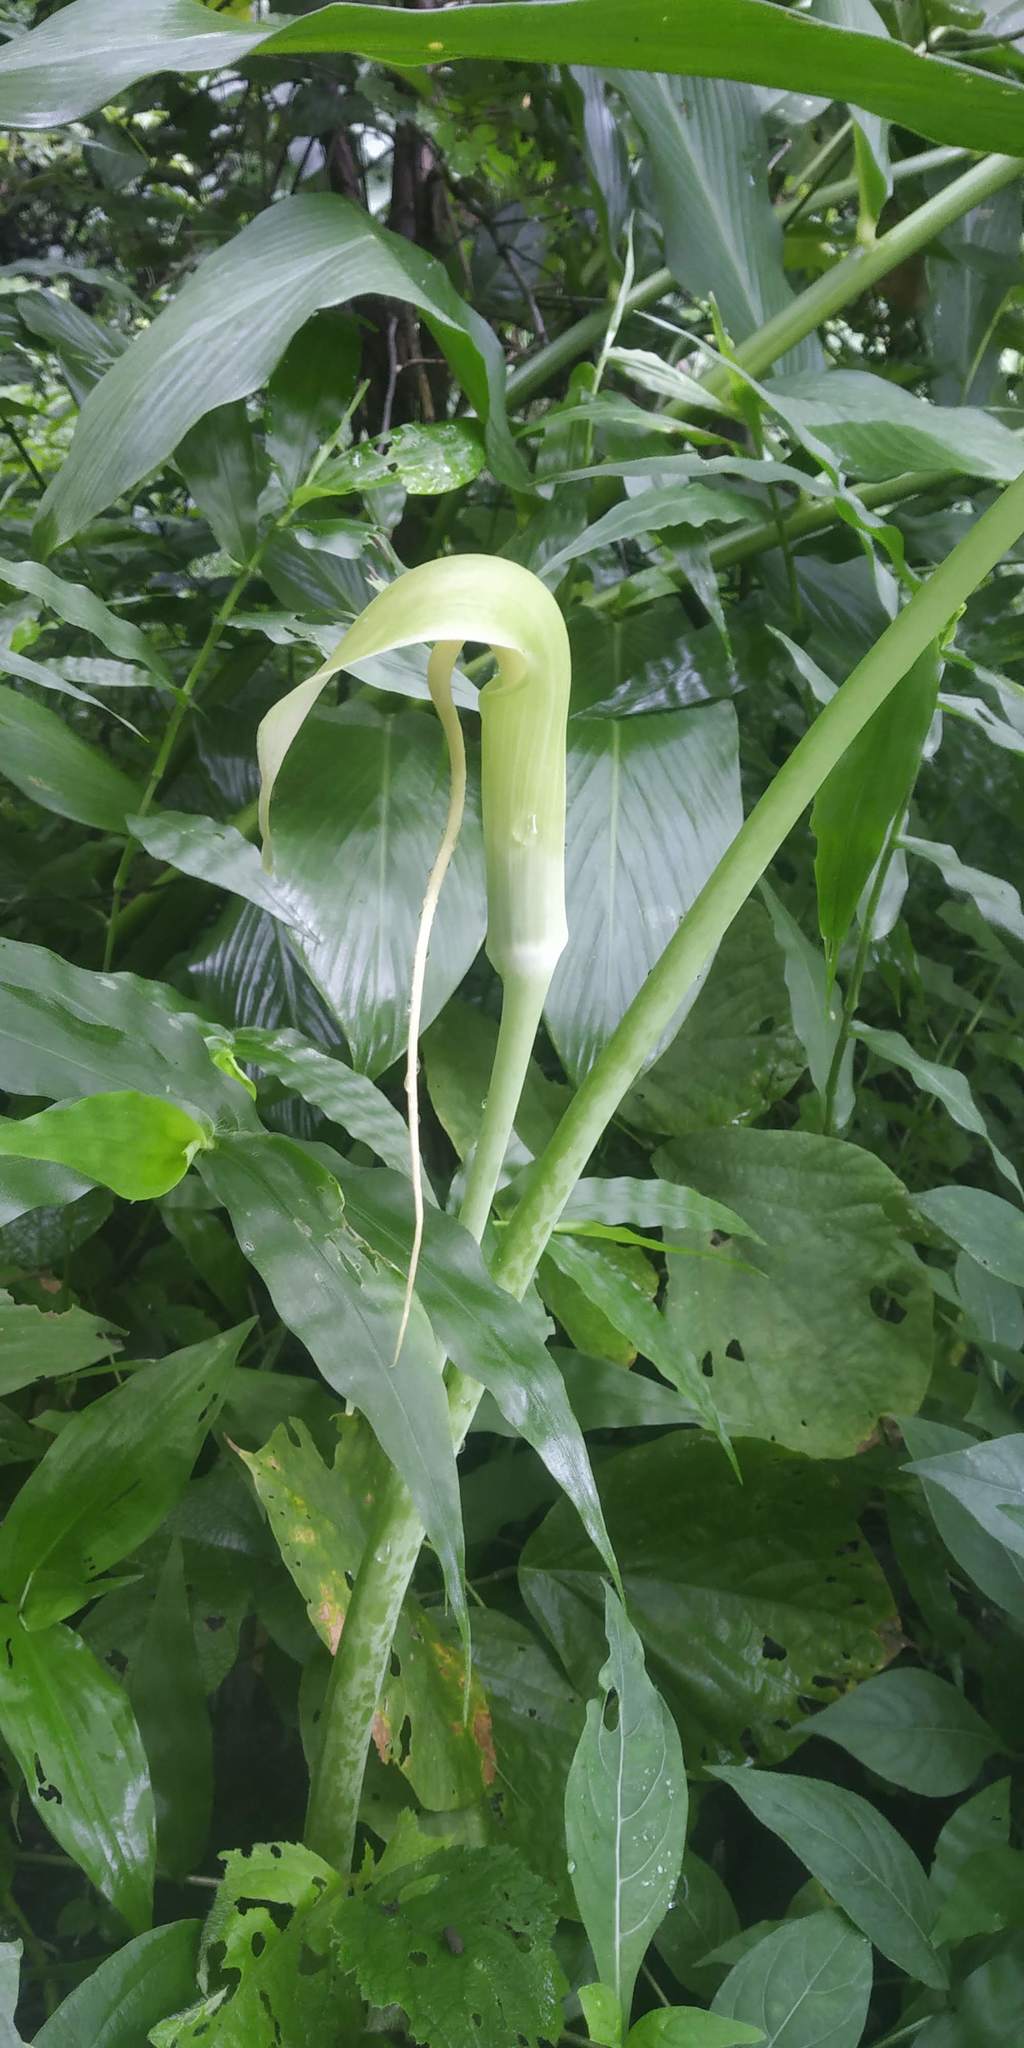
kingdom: Plantae
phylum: Tracheophyta
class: Liliopsida
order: Alismatales
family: Araceae
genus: Arisaema
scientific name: Arisaema tortuosum
